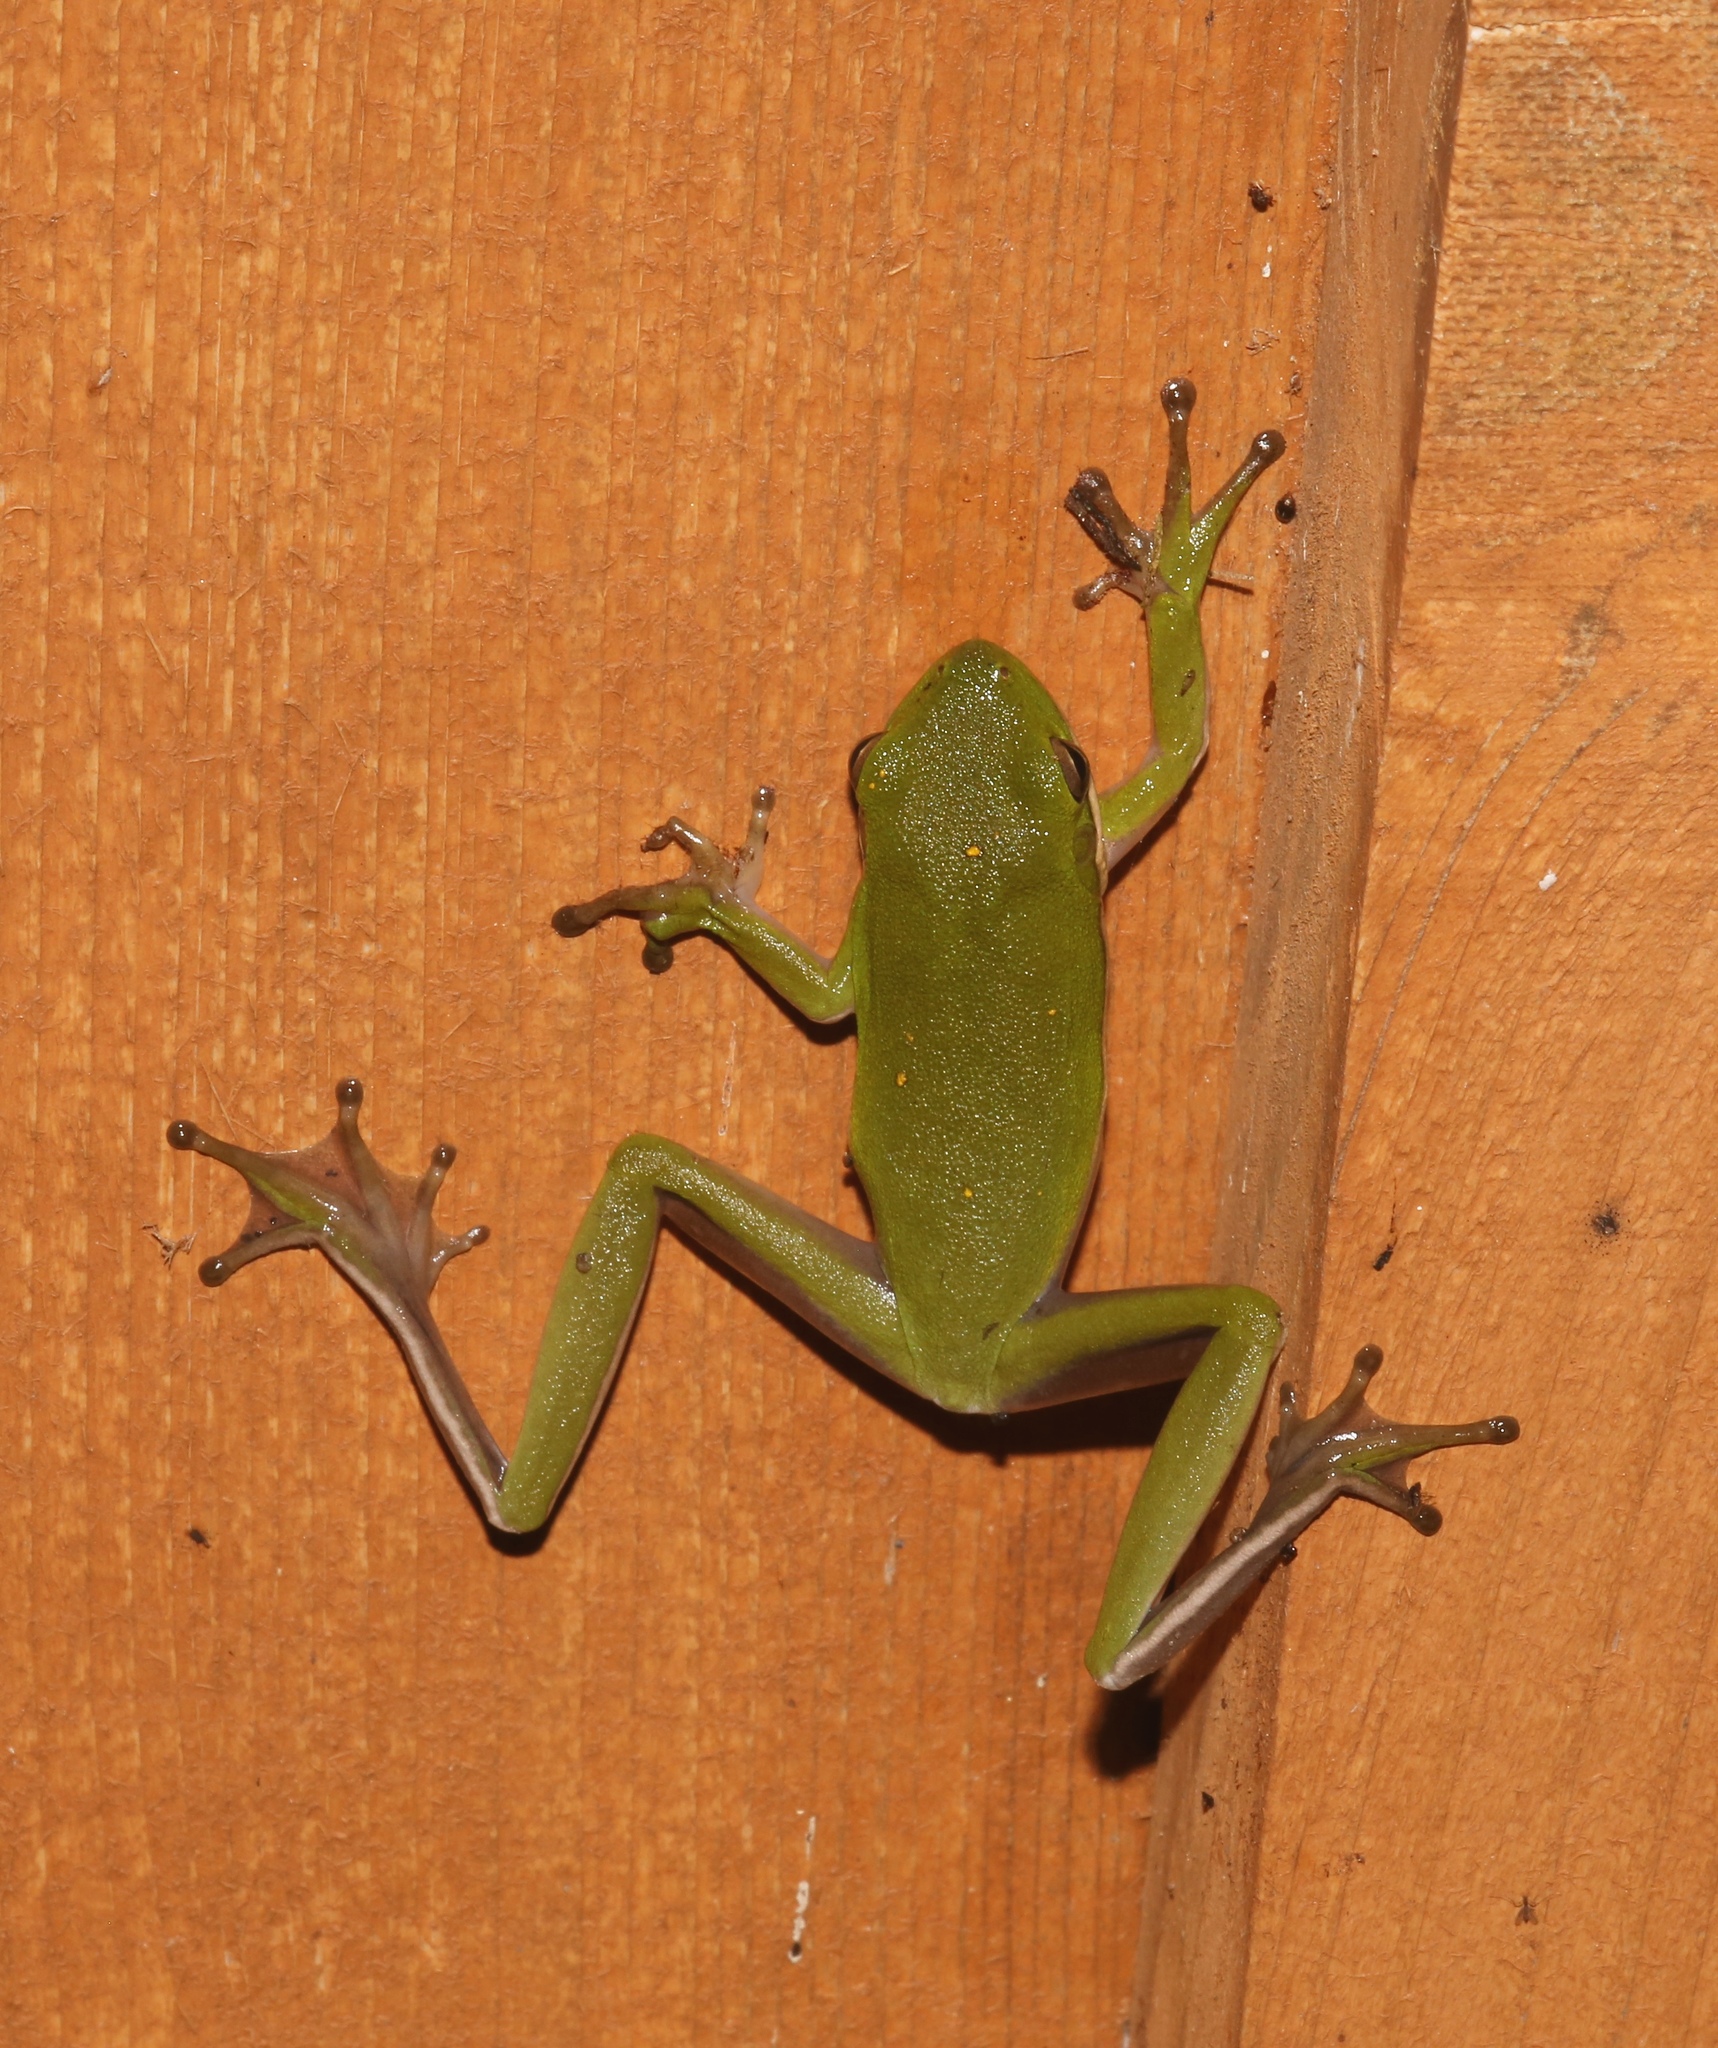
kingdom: Animalia
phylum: Chordata
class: Amphibia
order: Anura
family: Hylidae
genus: Dryophytes
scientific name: Dryophytes cinereus
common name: Green treefrog
